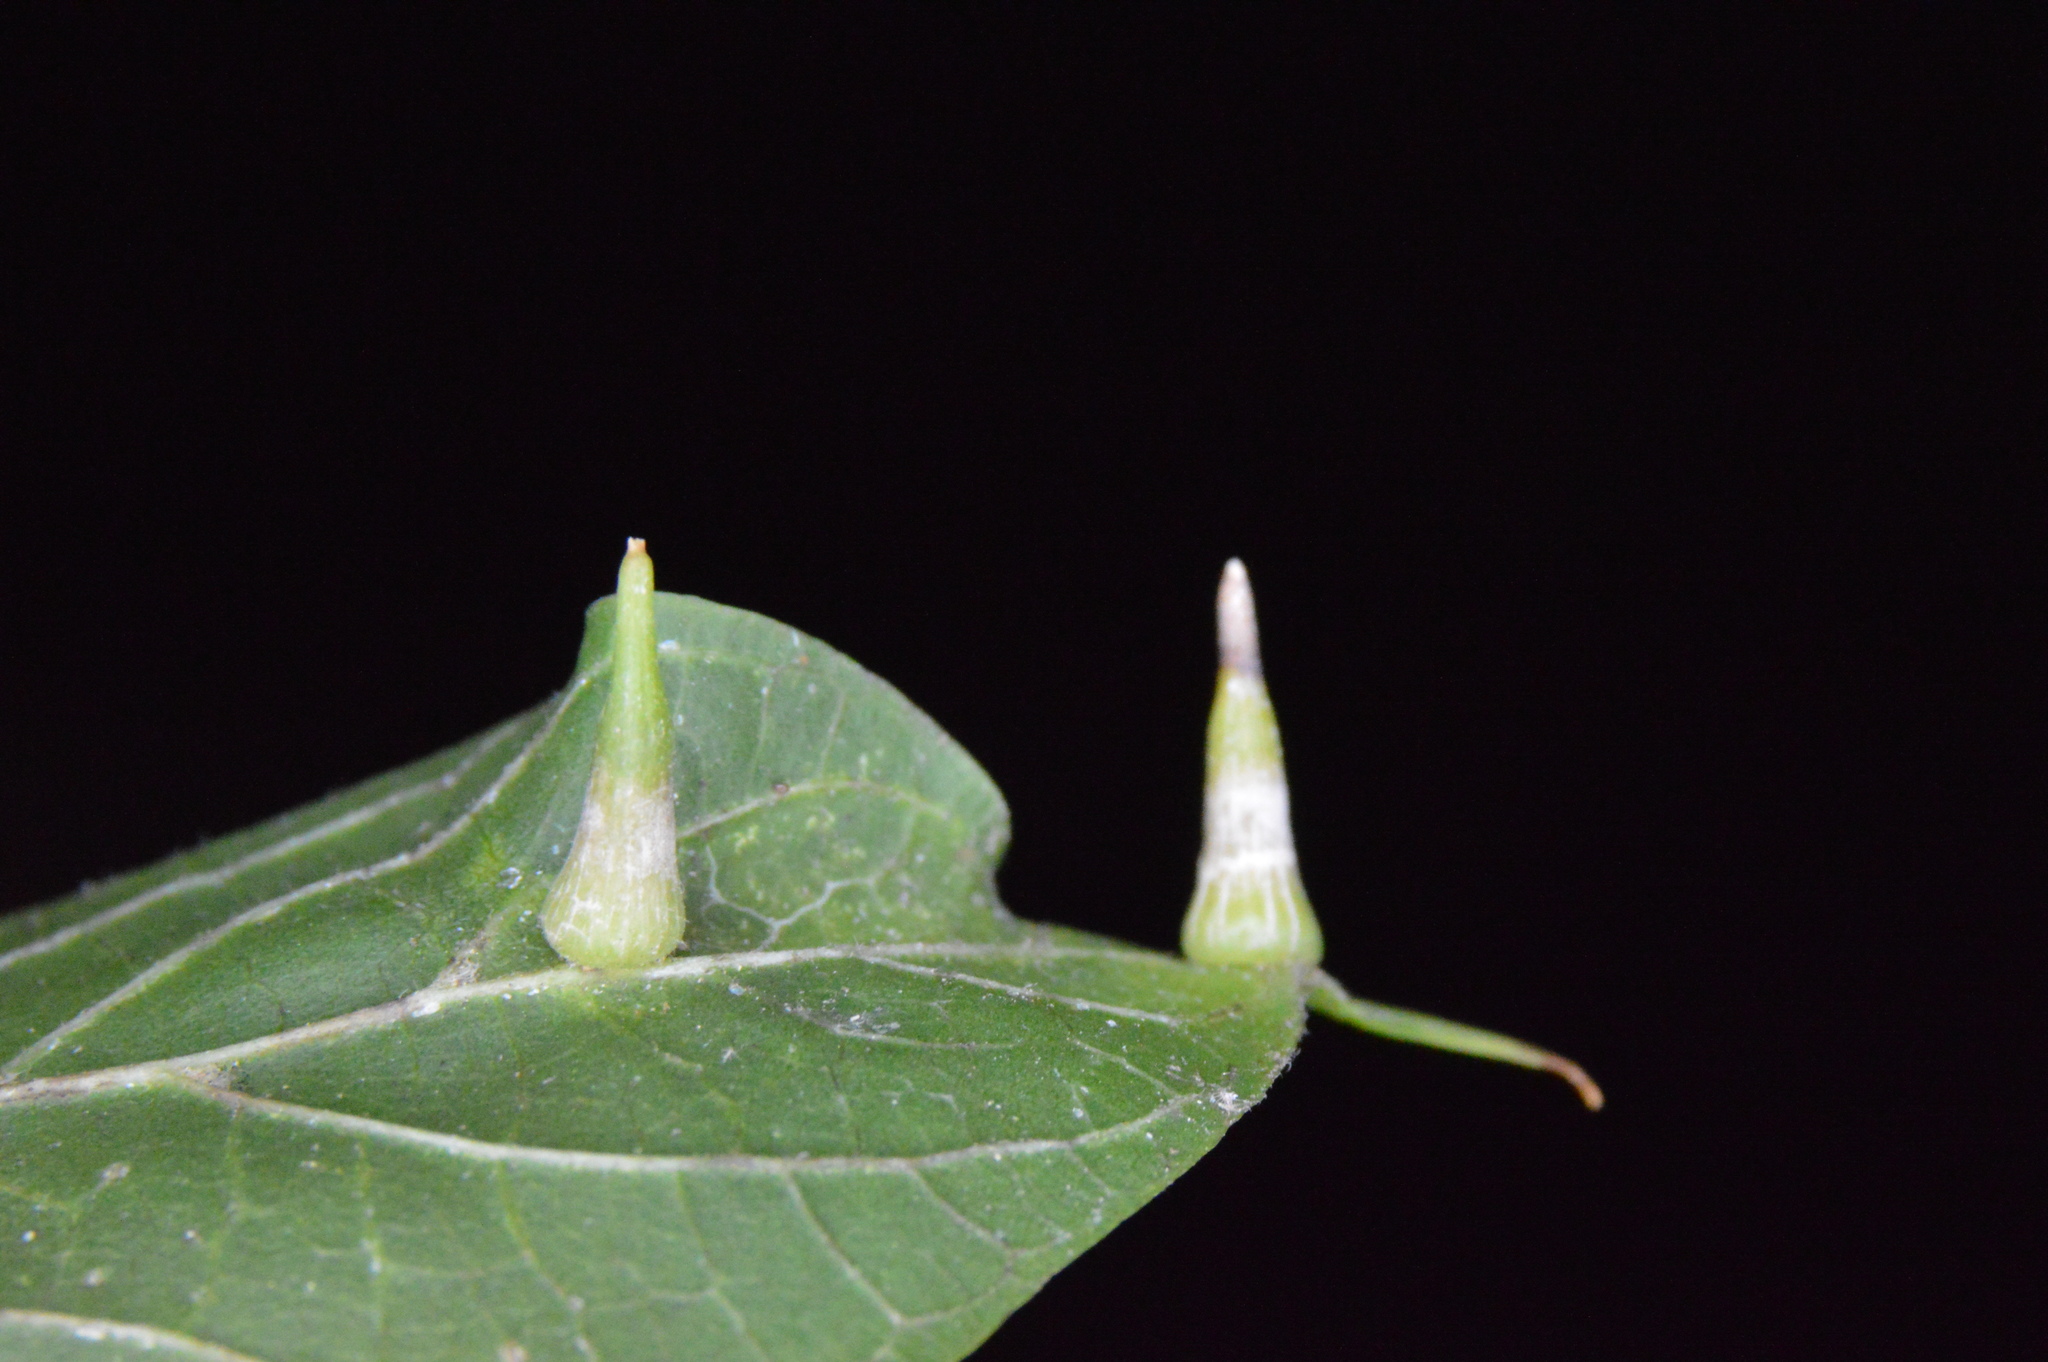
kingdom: Animalia
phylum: Arthropoda
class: Insecta
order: Diptera
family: Cecidomyiidae
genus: Celticecis
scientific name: Celticecis subulata
